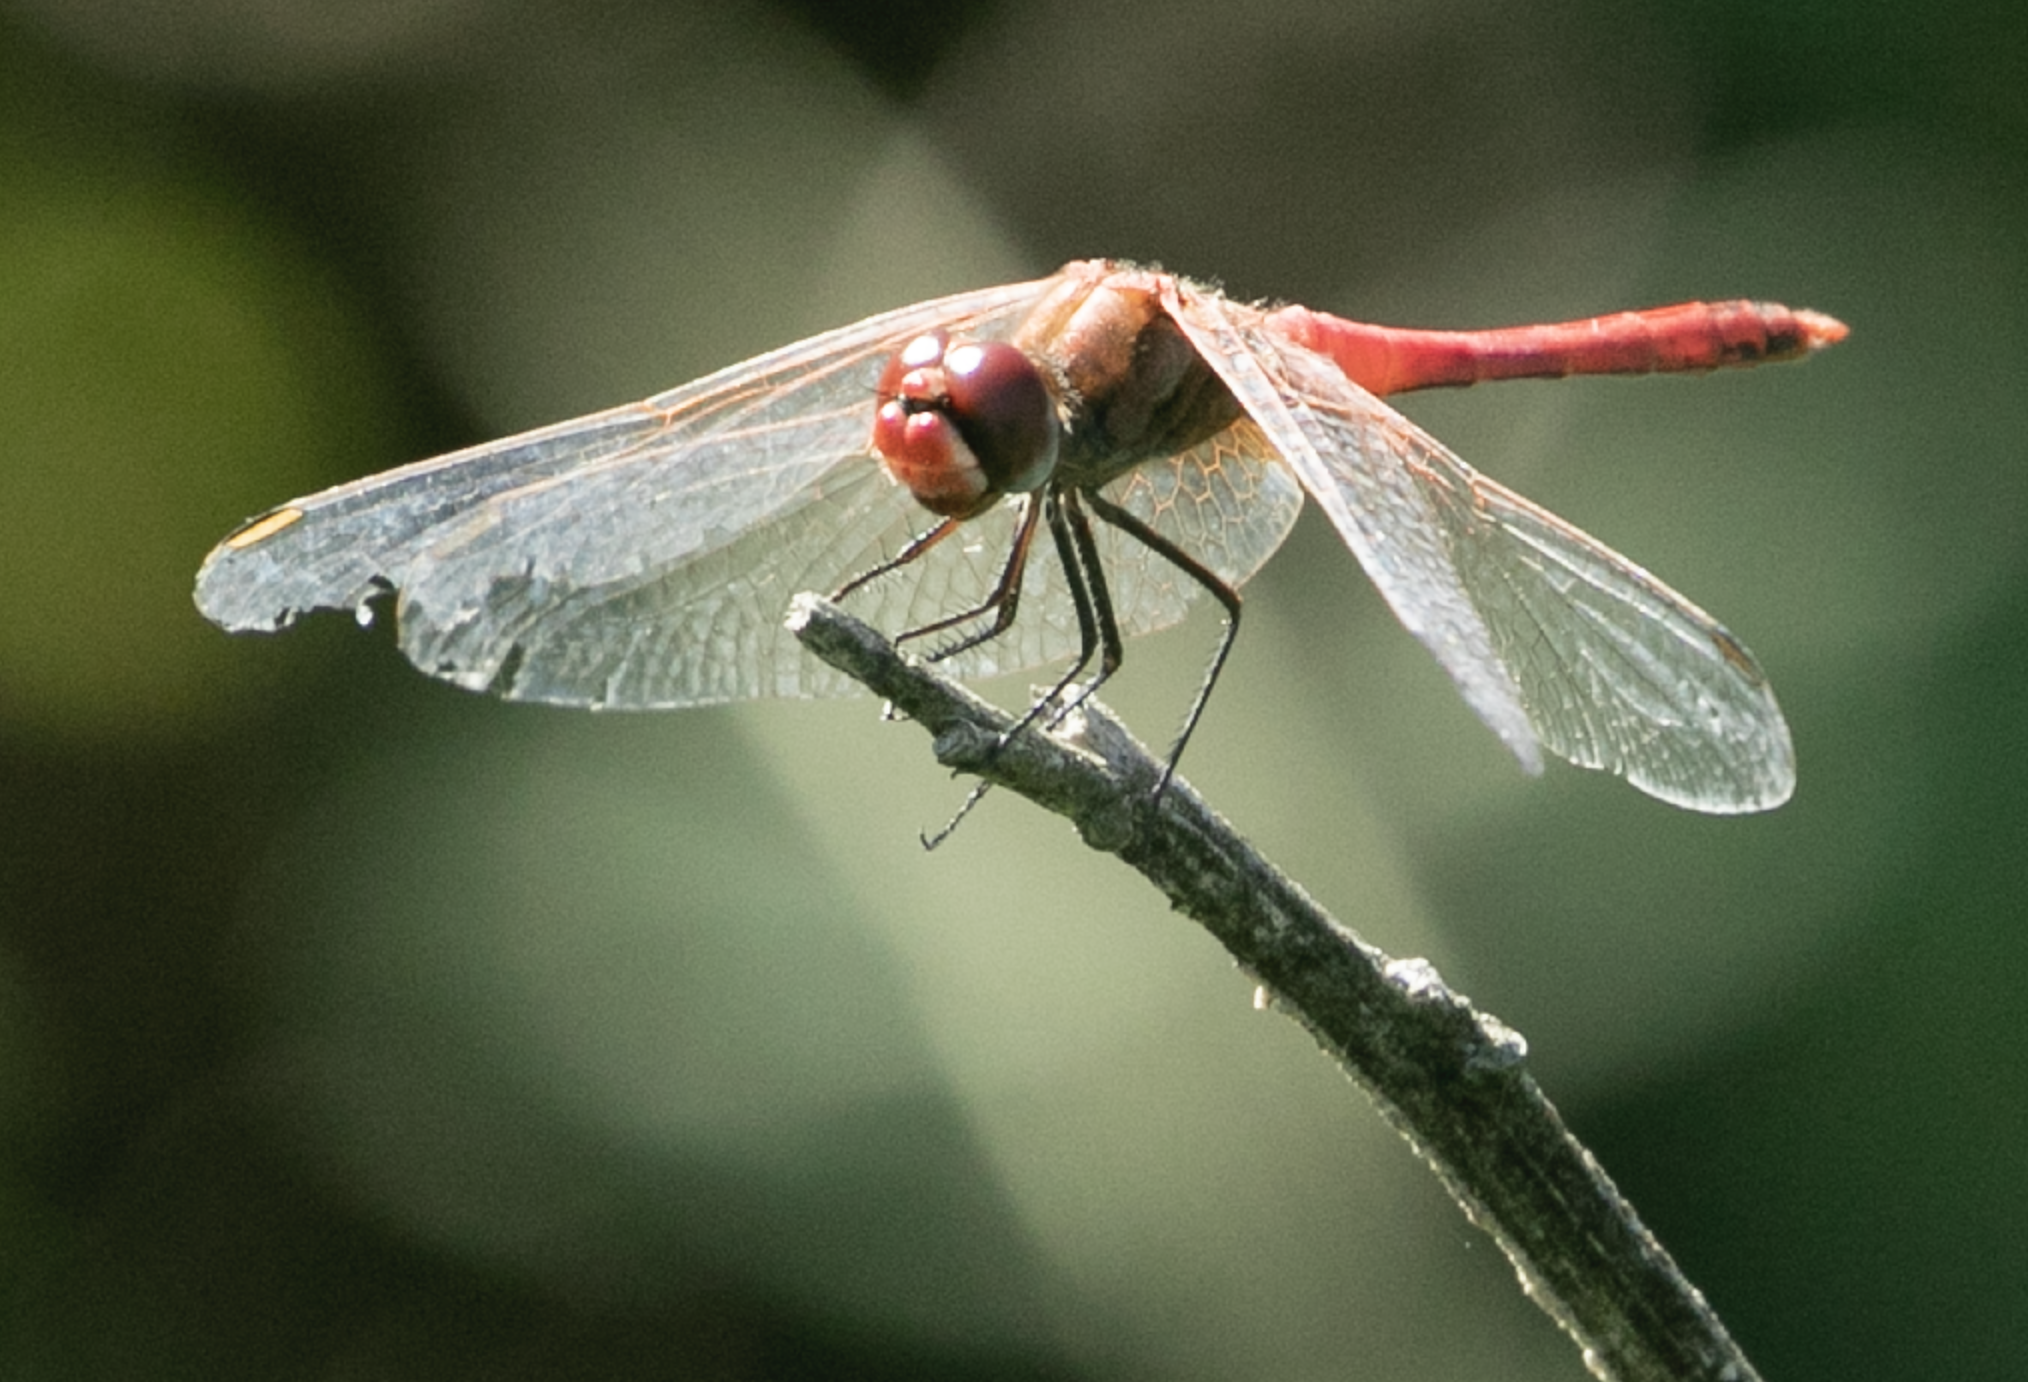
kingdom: Animalia
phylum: Arthropoda
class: Insecta
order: Odonata
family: Libellulidae
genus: Sympetrum
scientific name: Sympetrum fonscolombii
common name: Red-veined darter
